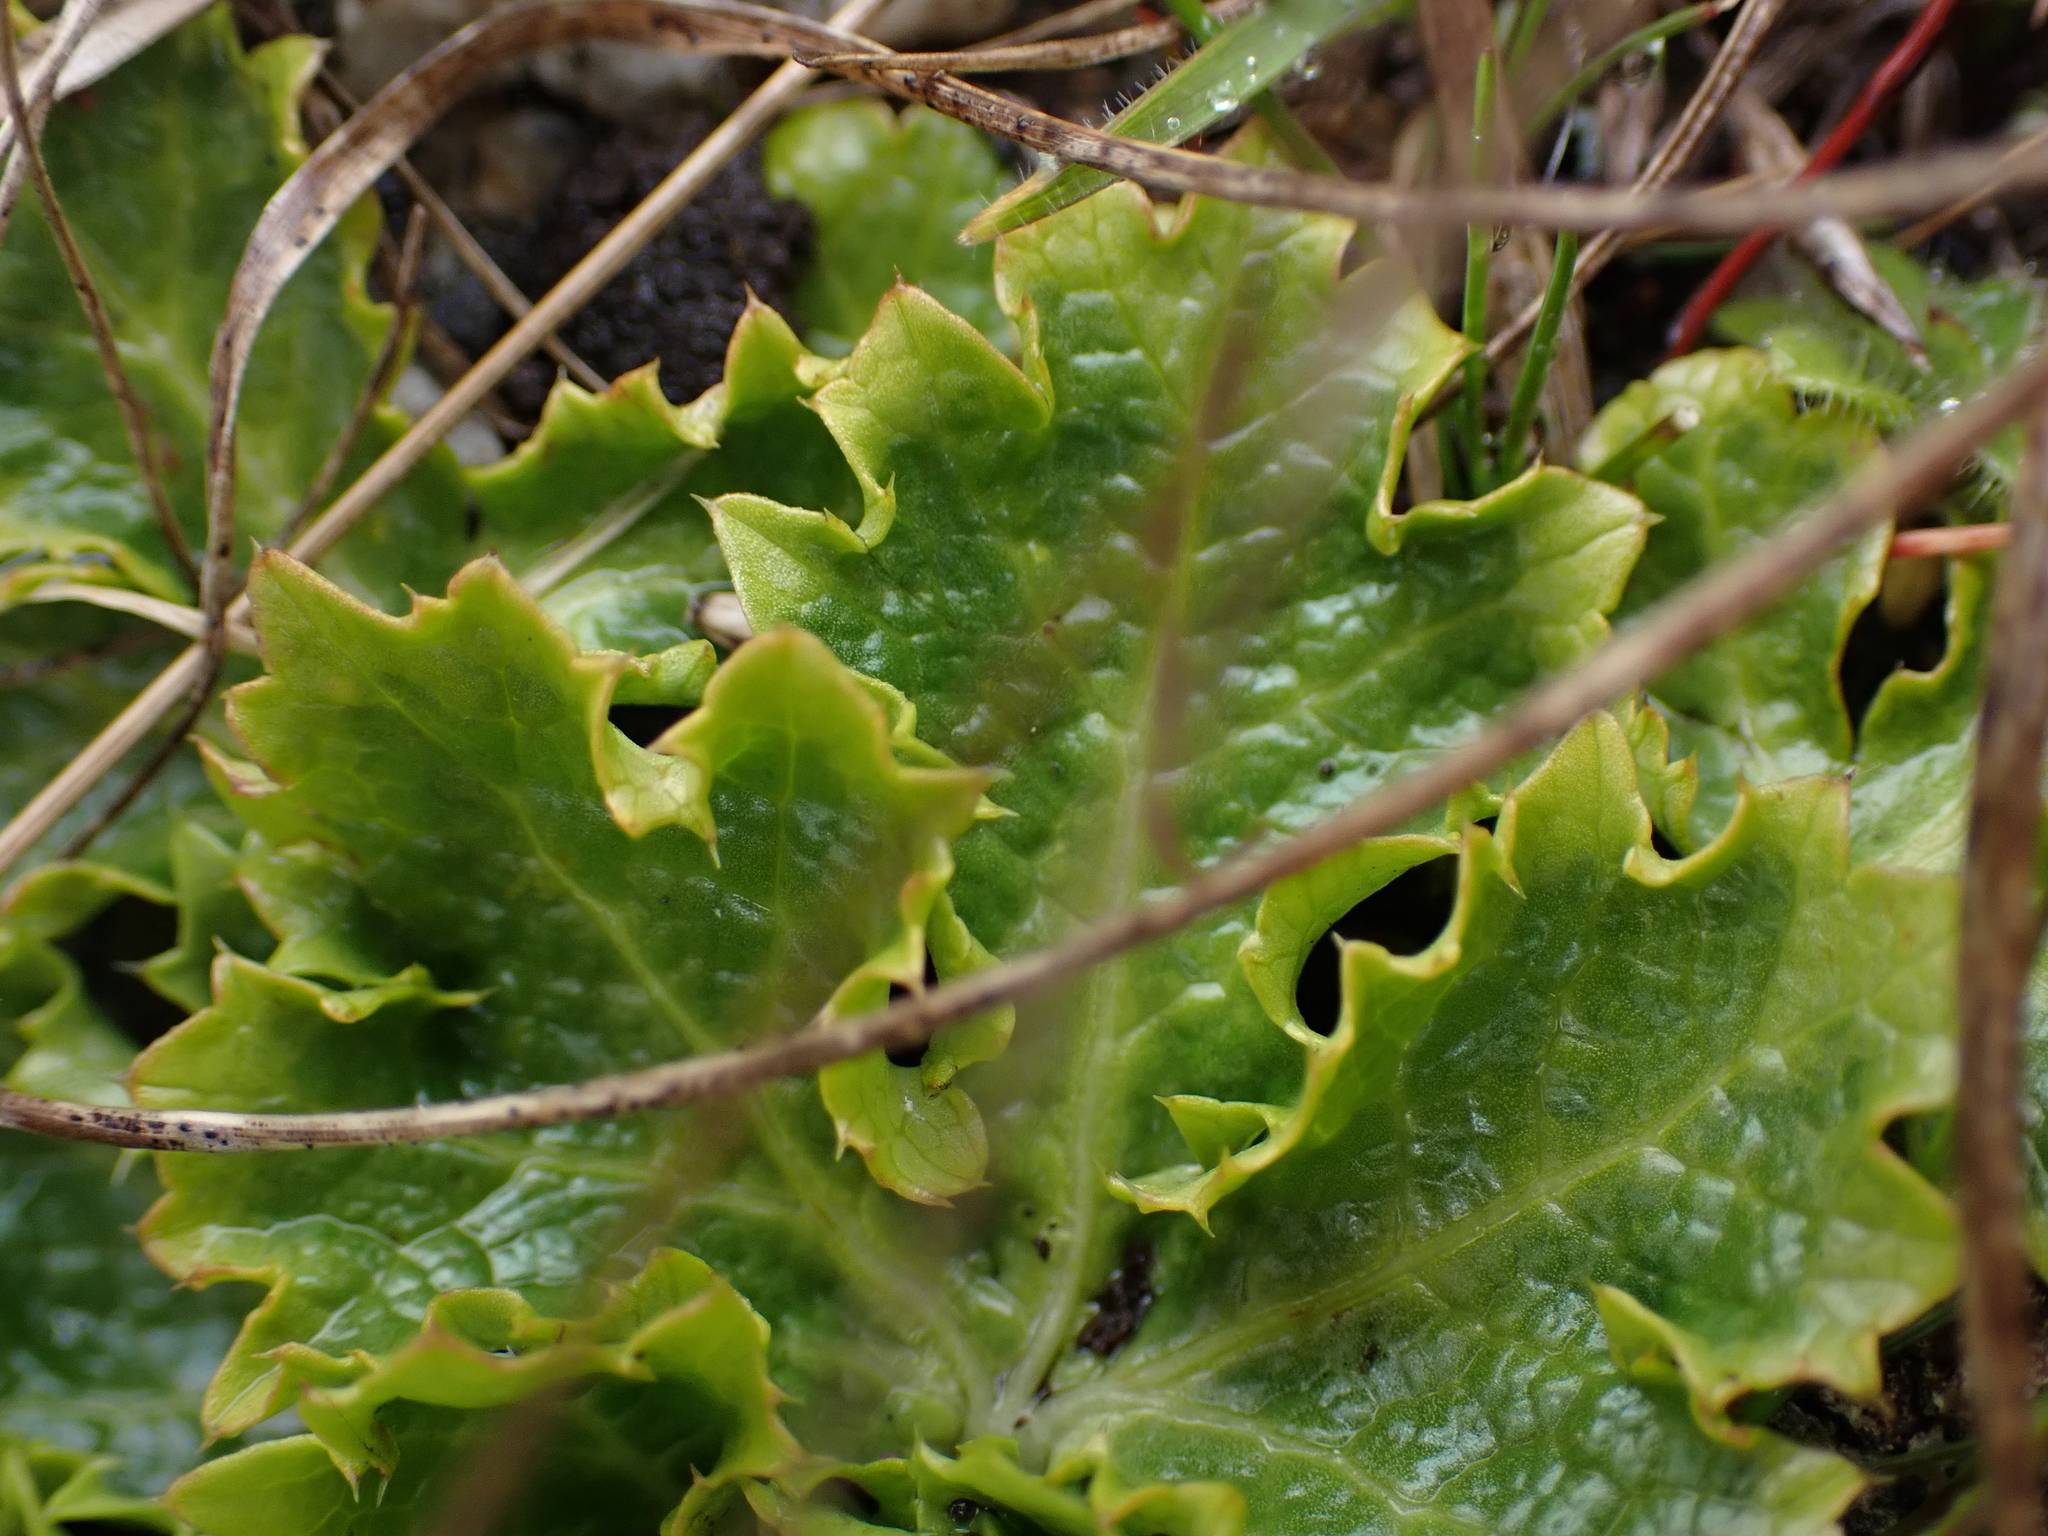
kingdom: Plantae
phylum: Tracheophyta
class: Magnoliopsida
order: Apiales
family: Apiaceae
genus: Sanicula
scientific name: Sanicula arctopoides
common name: Footsteps-of-spring
